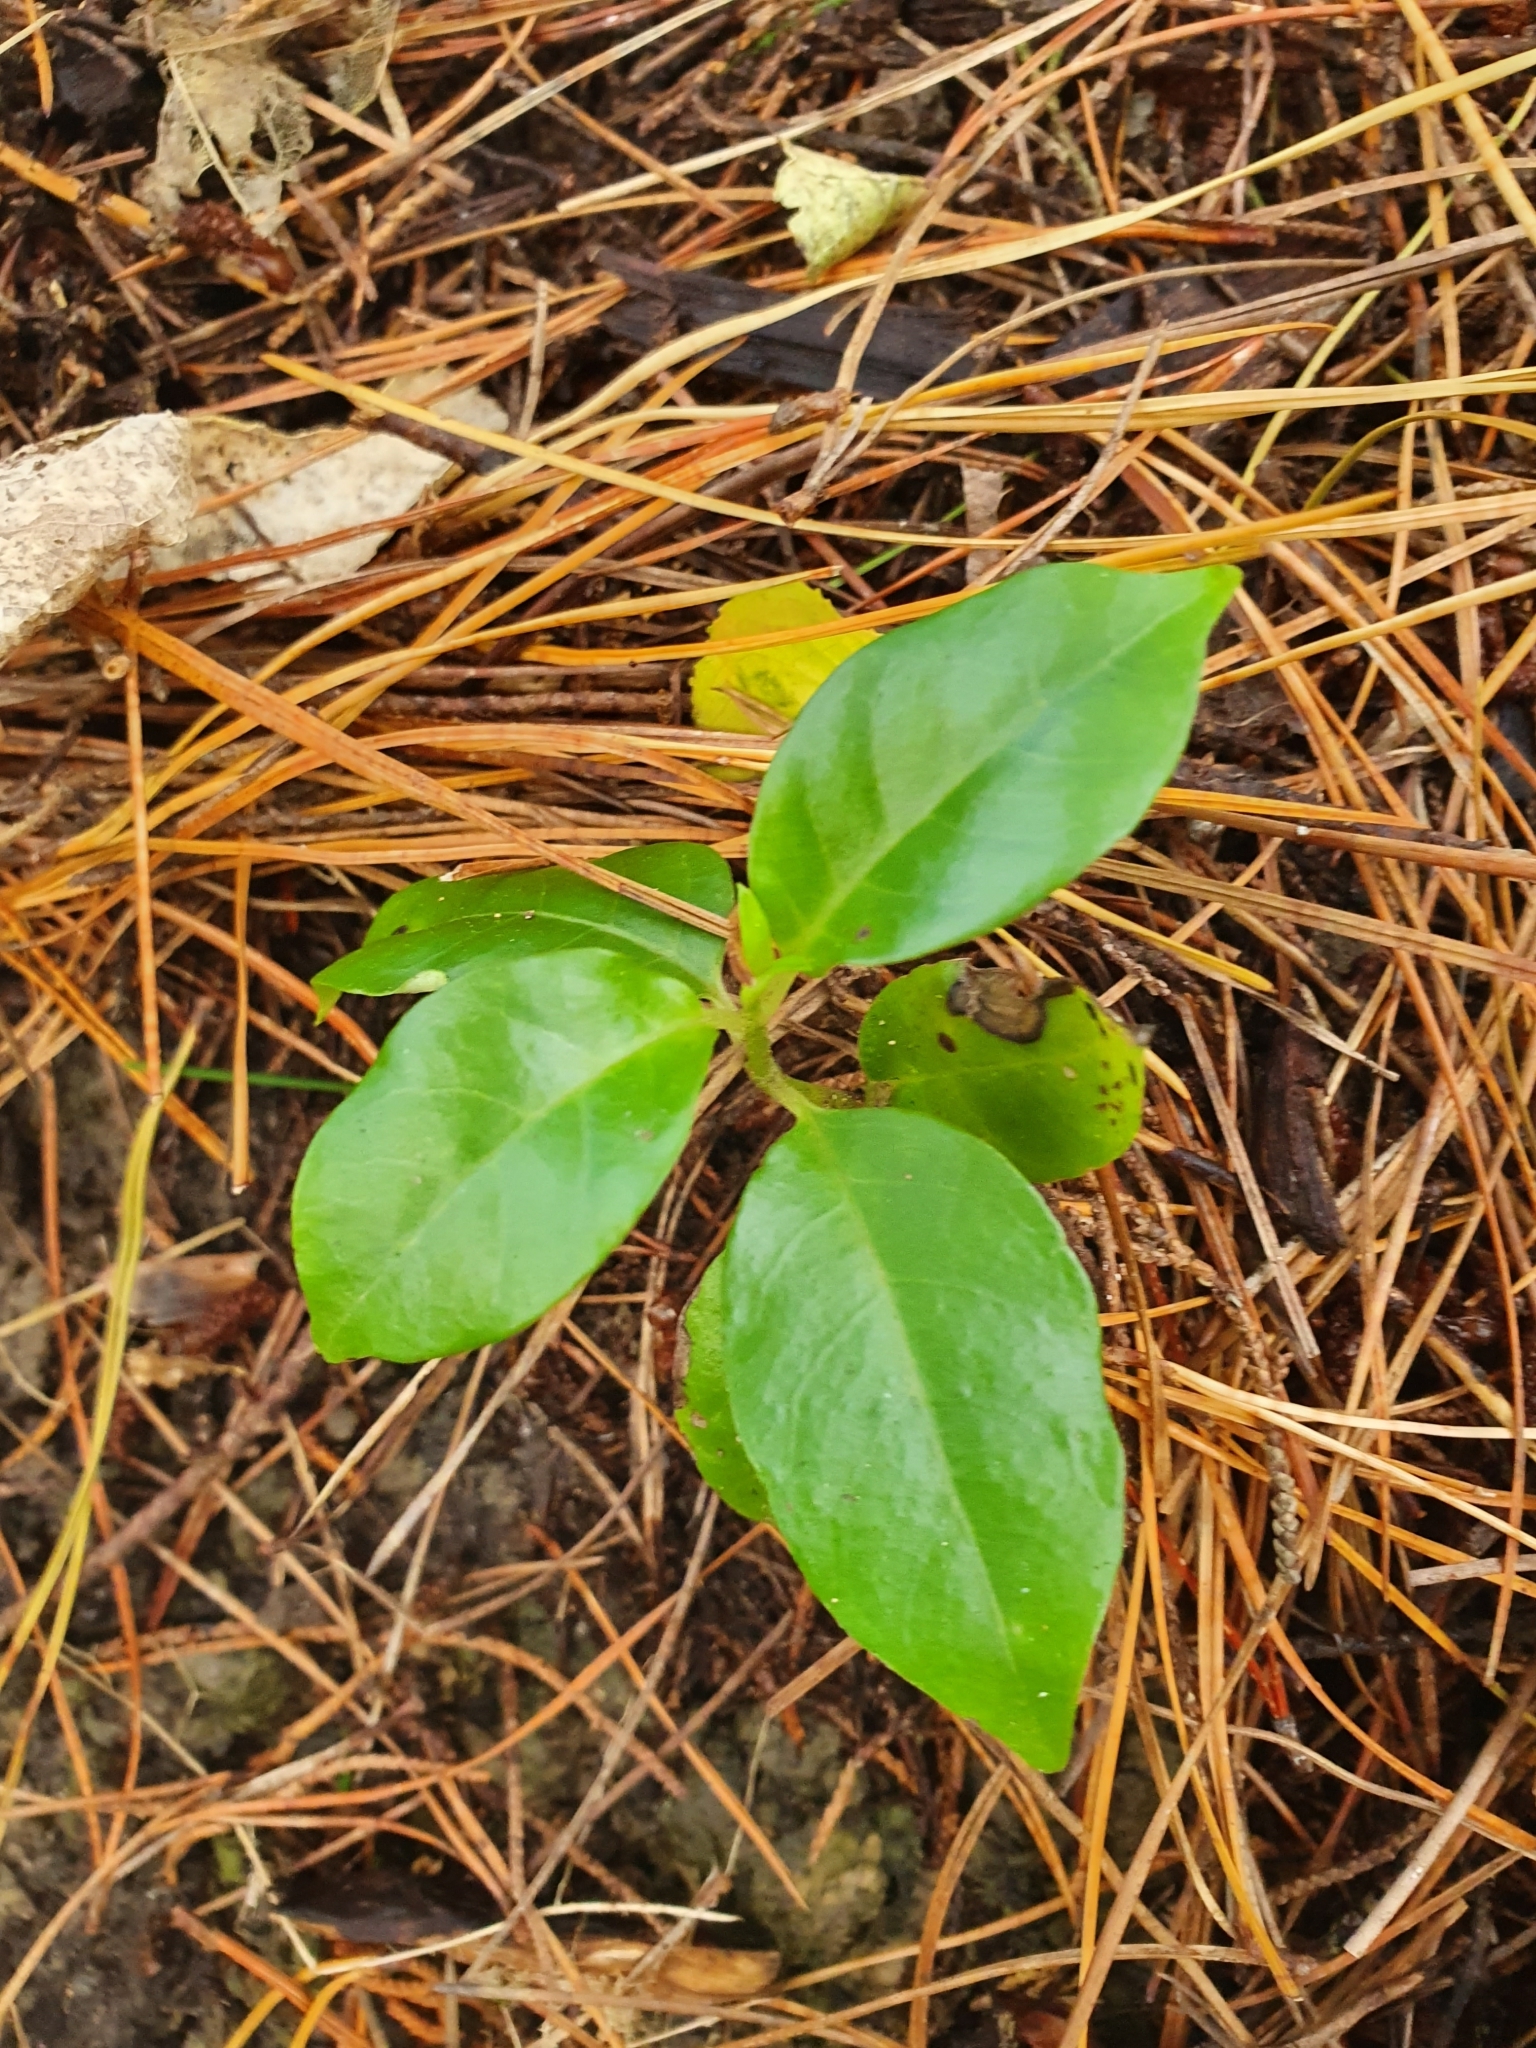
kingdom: Plantae
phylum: Tracheophyta
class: Magnoliopsida
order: Gentianales
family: Loganiaceae
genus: Geniostoma
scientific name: Geniostoma ligustrifolium
